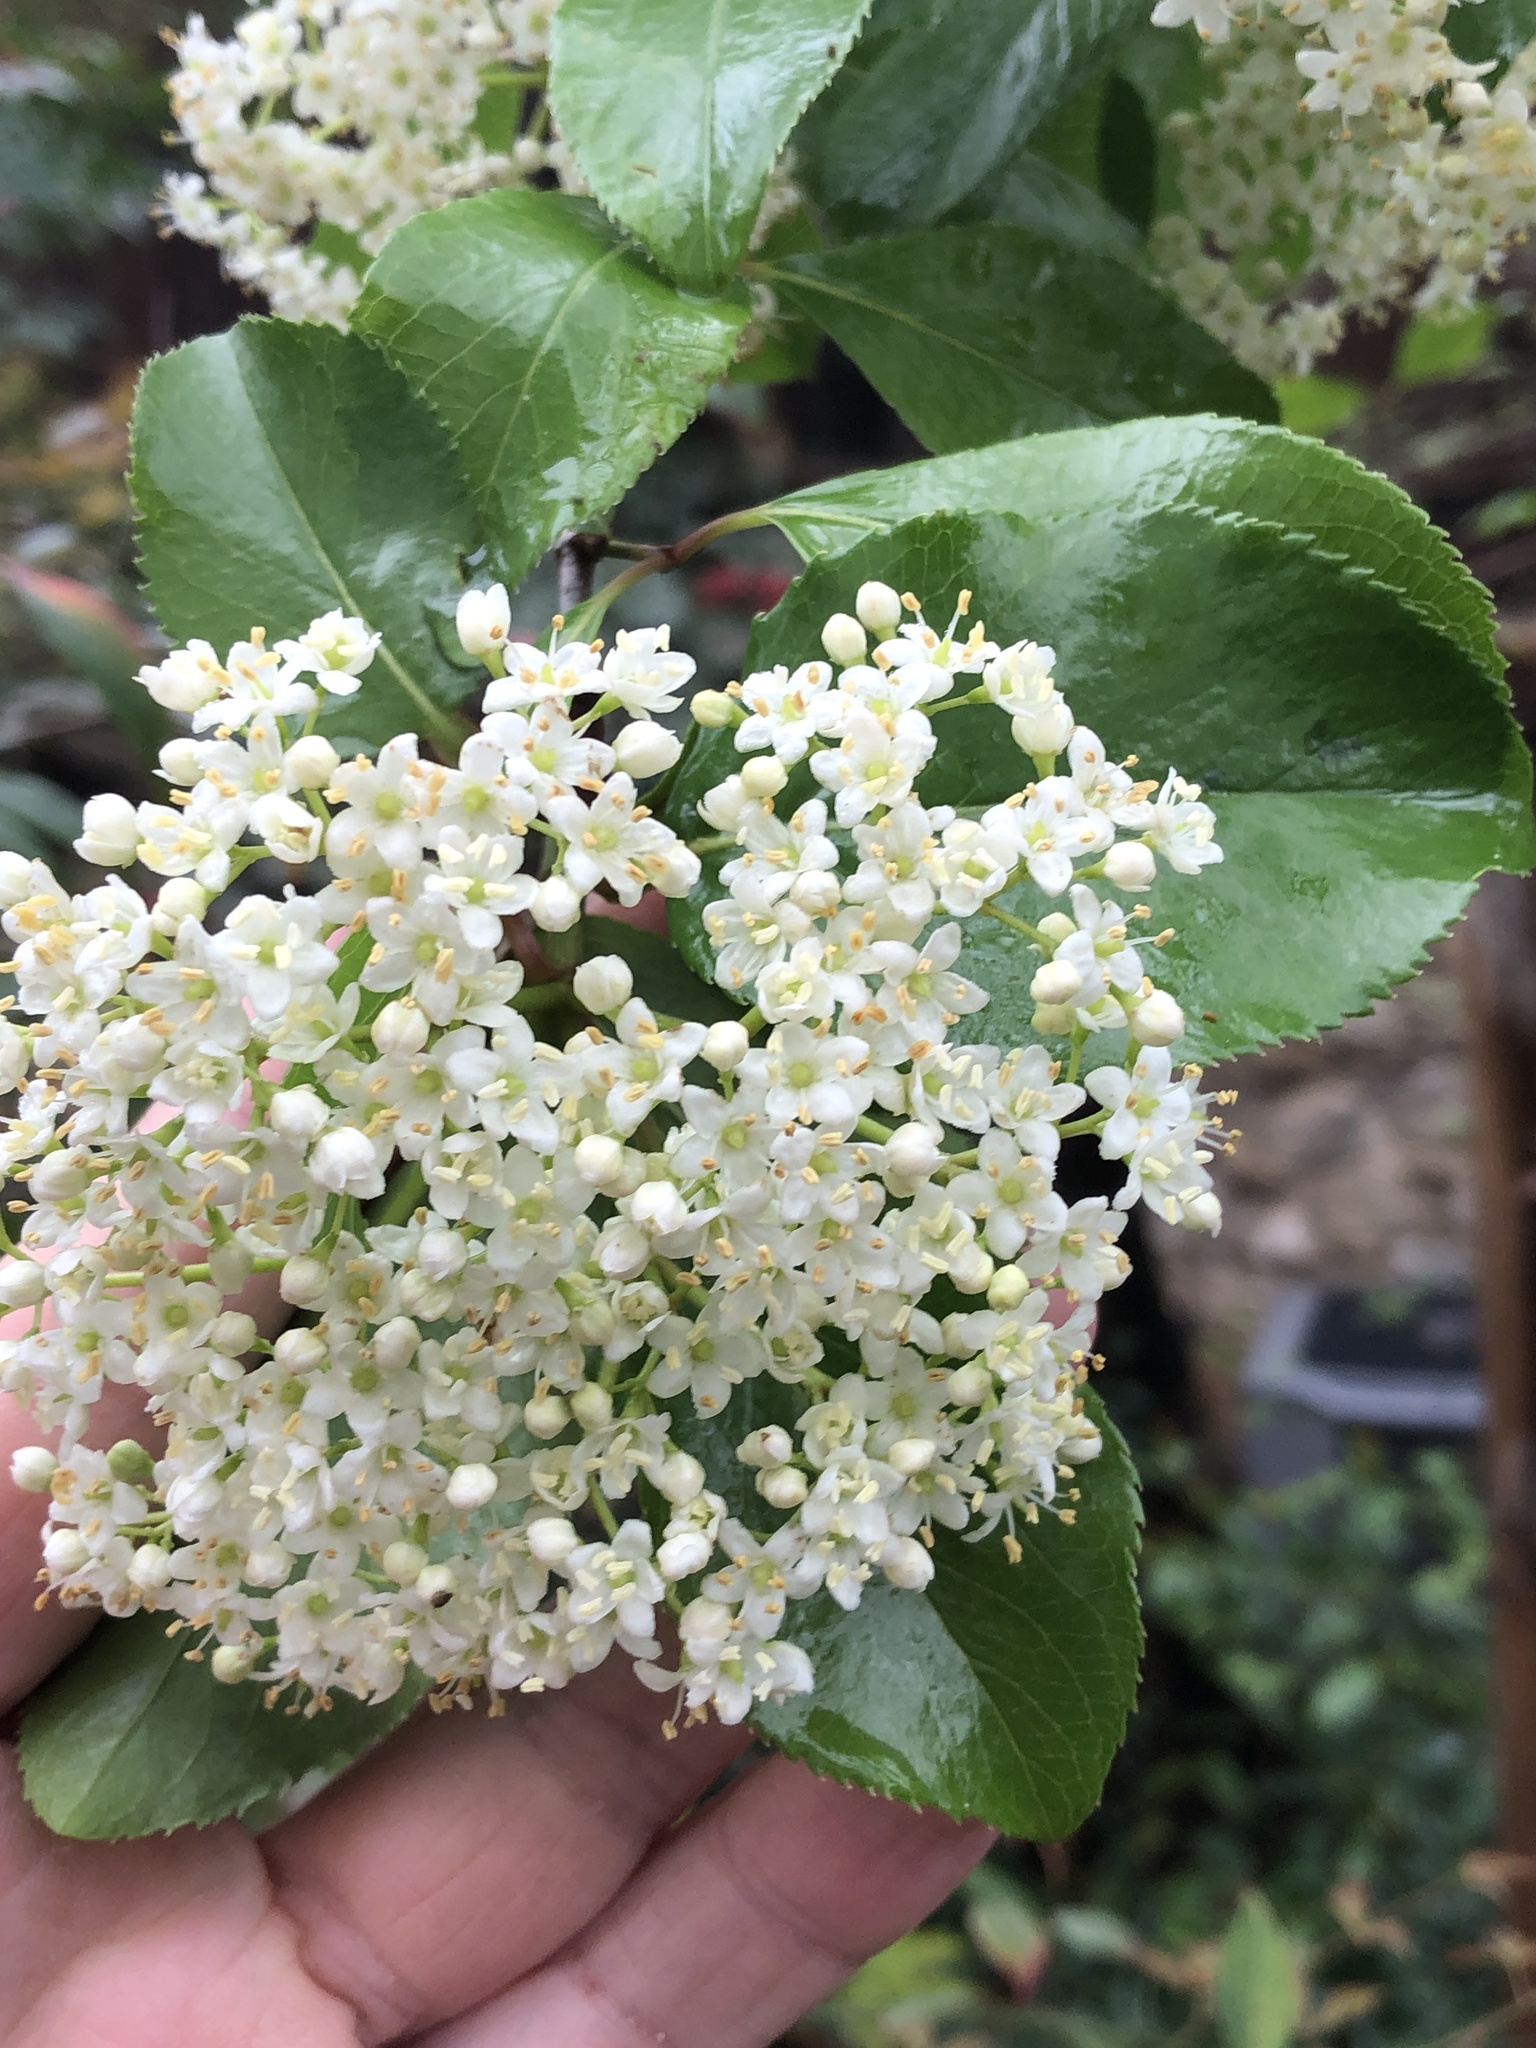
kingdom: Plantae
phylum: Tracheophyta
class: Magnoliopsida
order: Dipsacales
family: Viburnaceae
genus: Viburnum
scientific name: Viburnum rufidulum
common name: Blue haw
